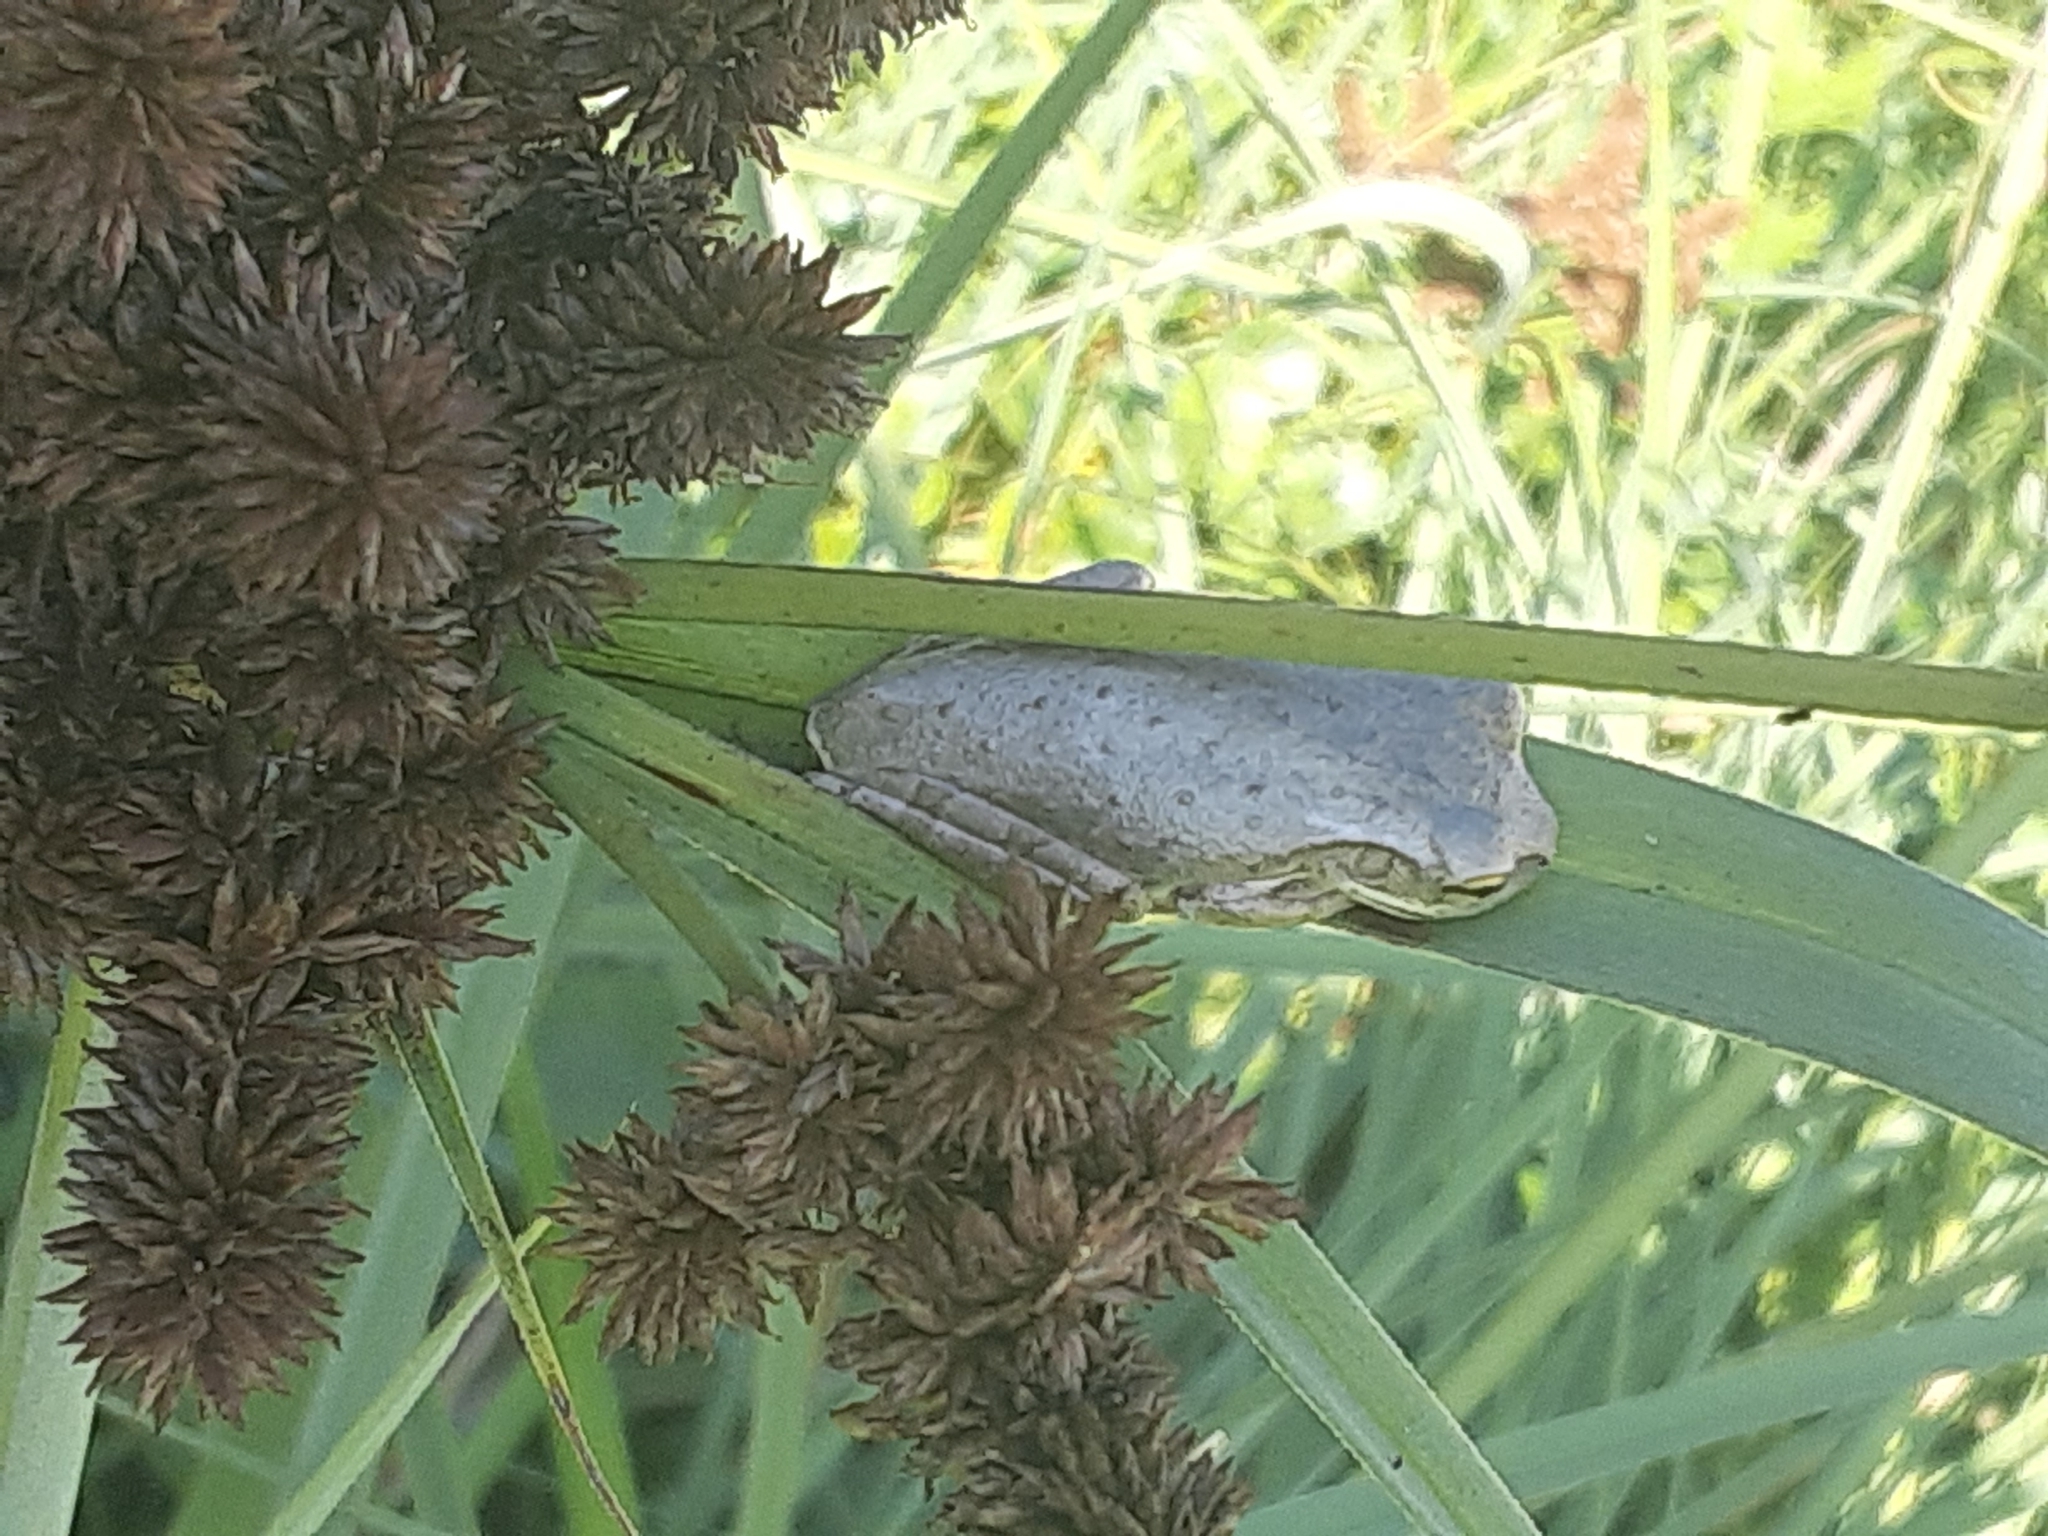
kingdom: Animalia
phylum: Chordata
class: Amphibia
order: Anura
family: Hylidae
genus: Osteopilus
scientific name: Osteopilus septentrionalis
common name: Cuban treefrog
